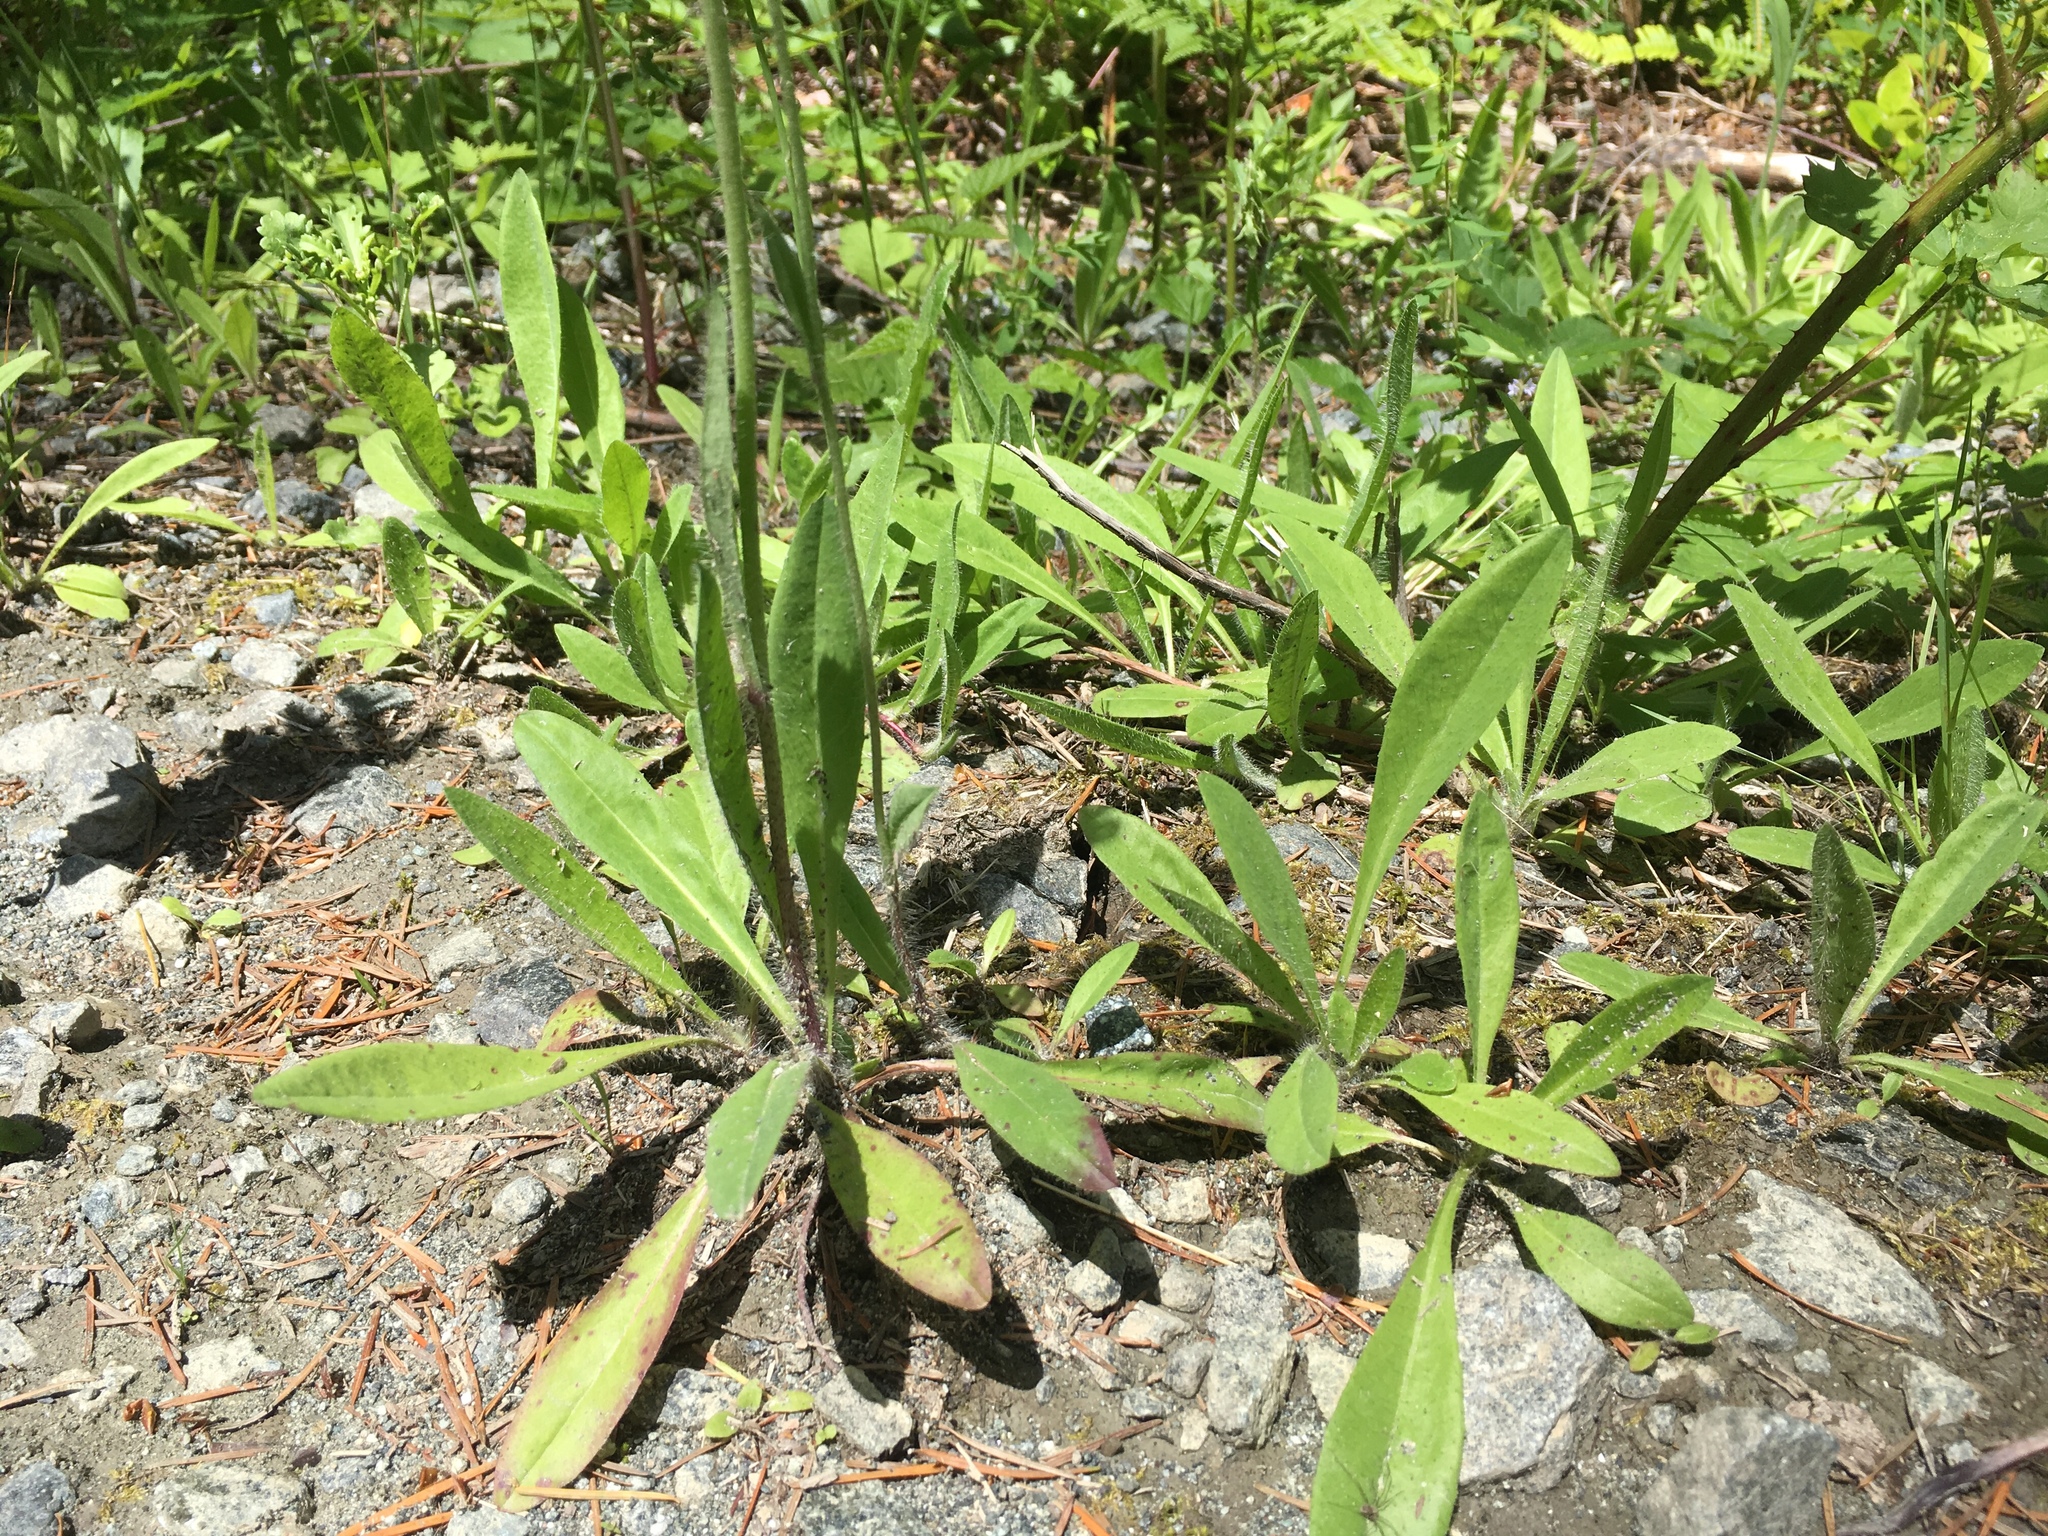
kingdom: Plantae
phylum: Tracheophyta
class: Magnoliopsida
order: Asterales
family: Asteraceae
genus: Pilosella
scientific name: Pilosella caespitosa
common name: Yellow fox-and-cubs
